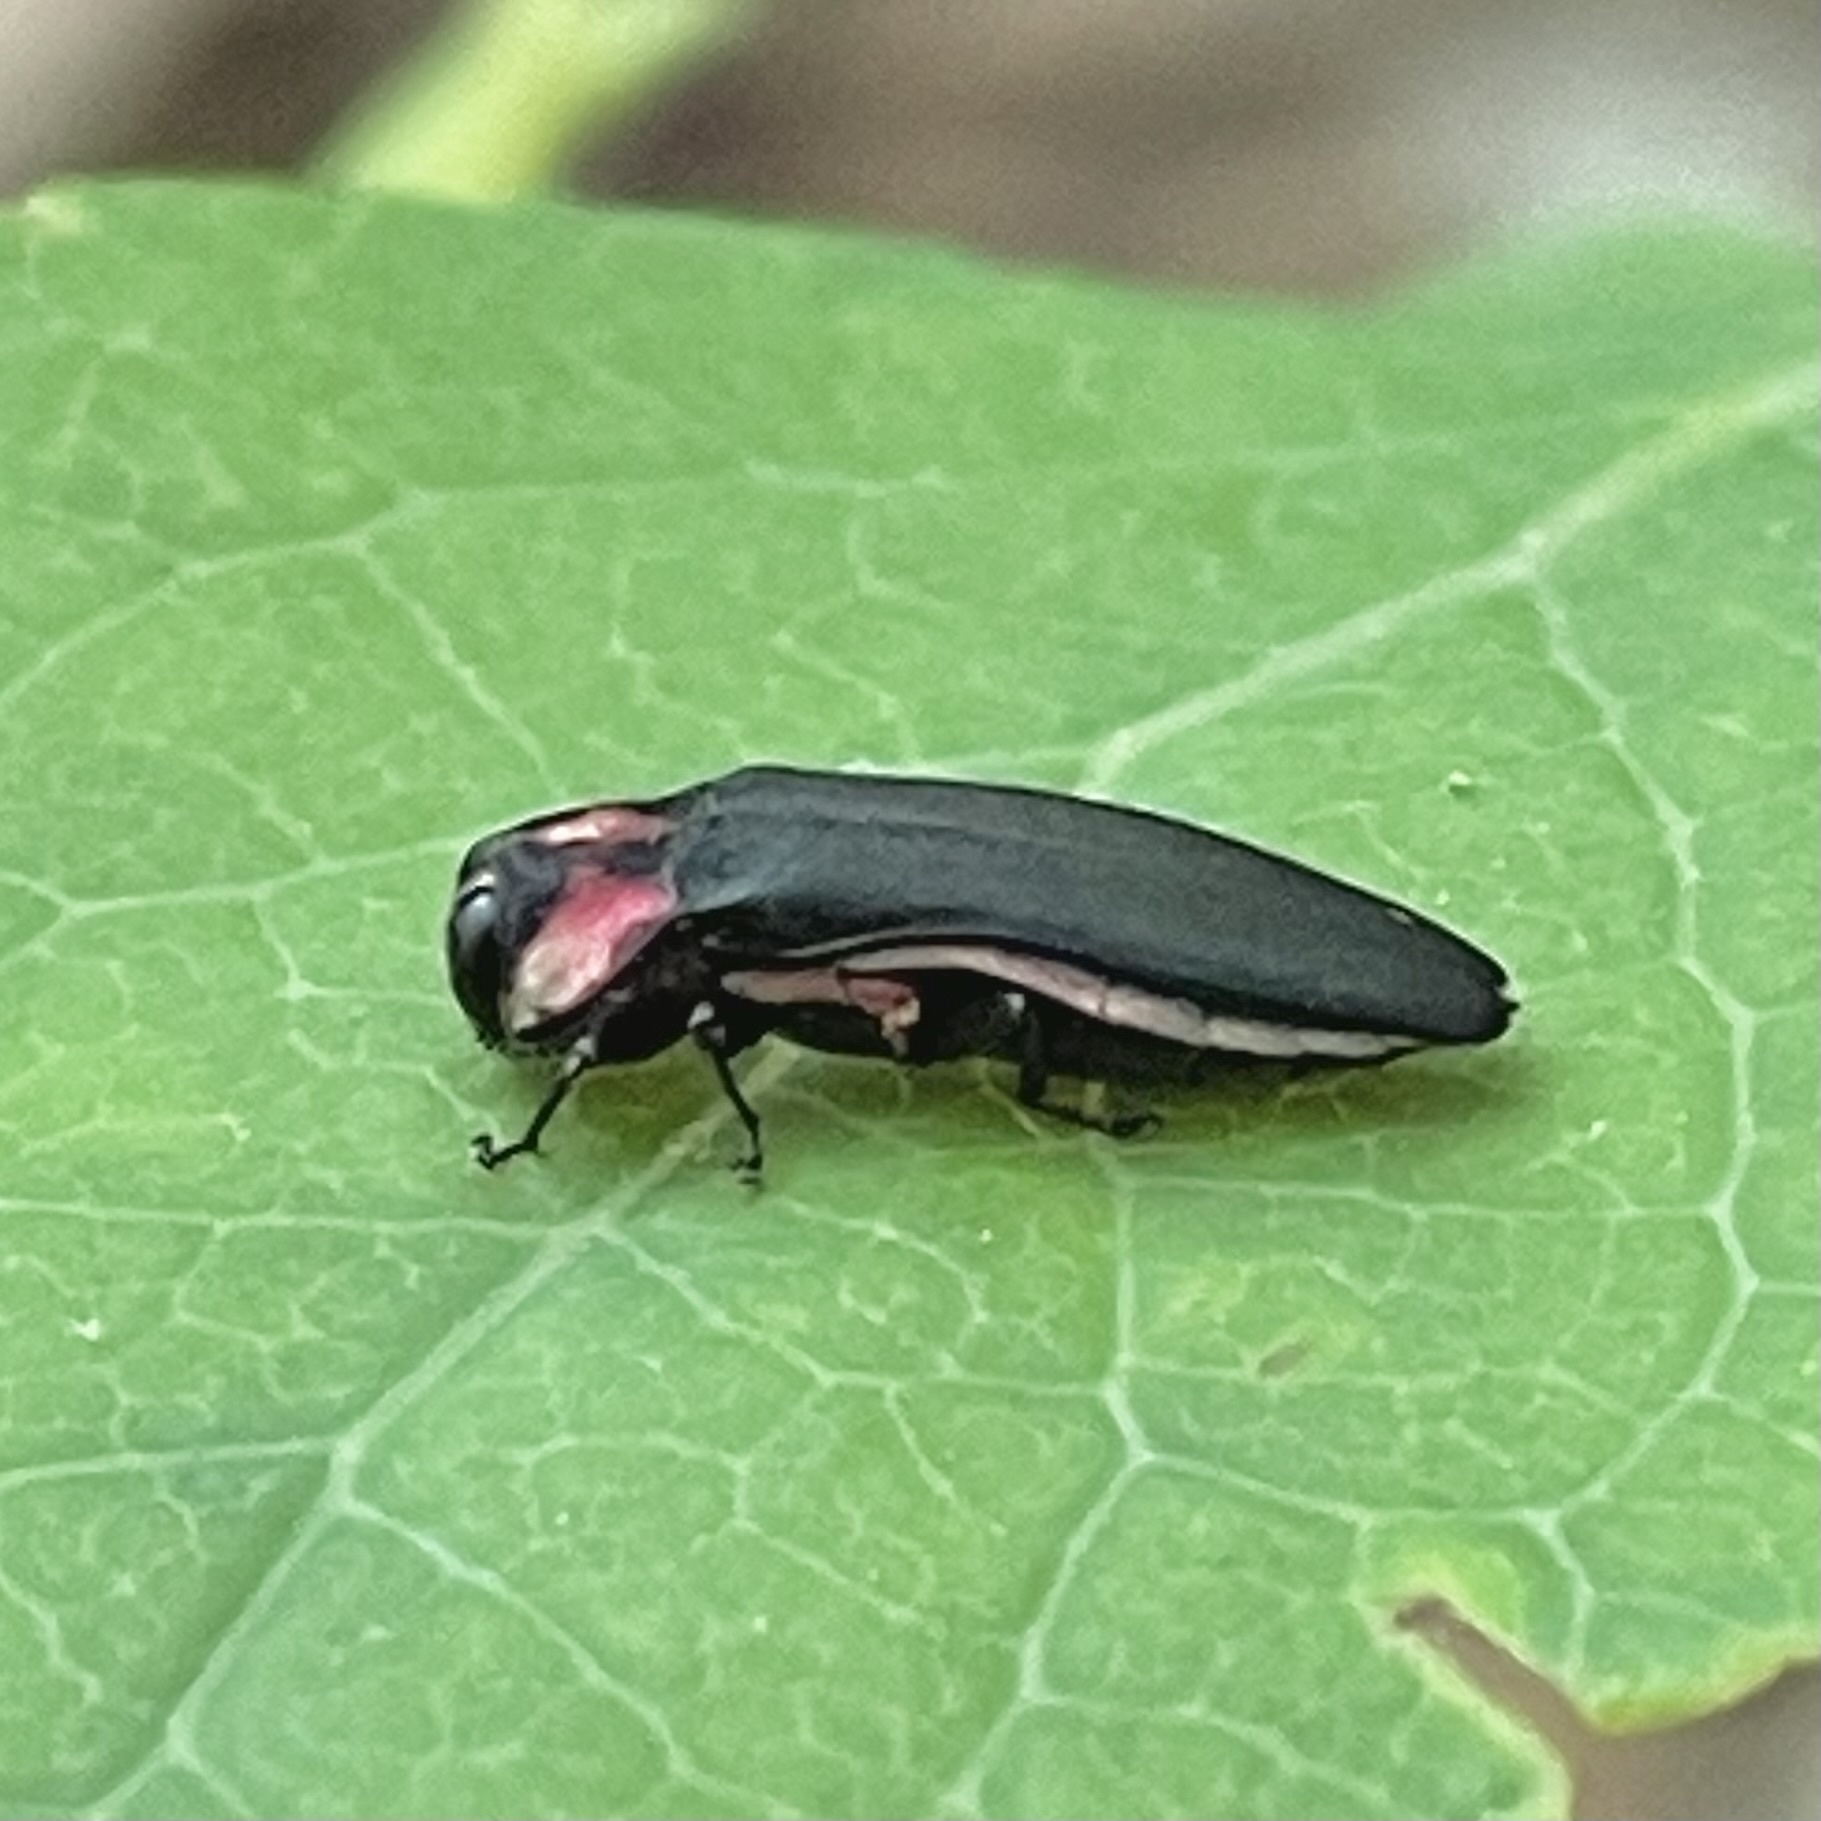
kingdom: Animalia
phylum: Arthropoda
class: Insecta
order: Coleoptera
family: Buprestidae
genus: Agrilus
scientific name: Agrilus benjamini
